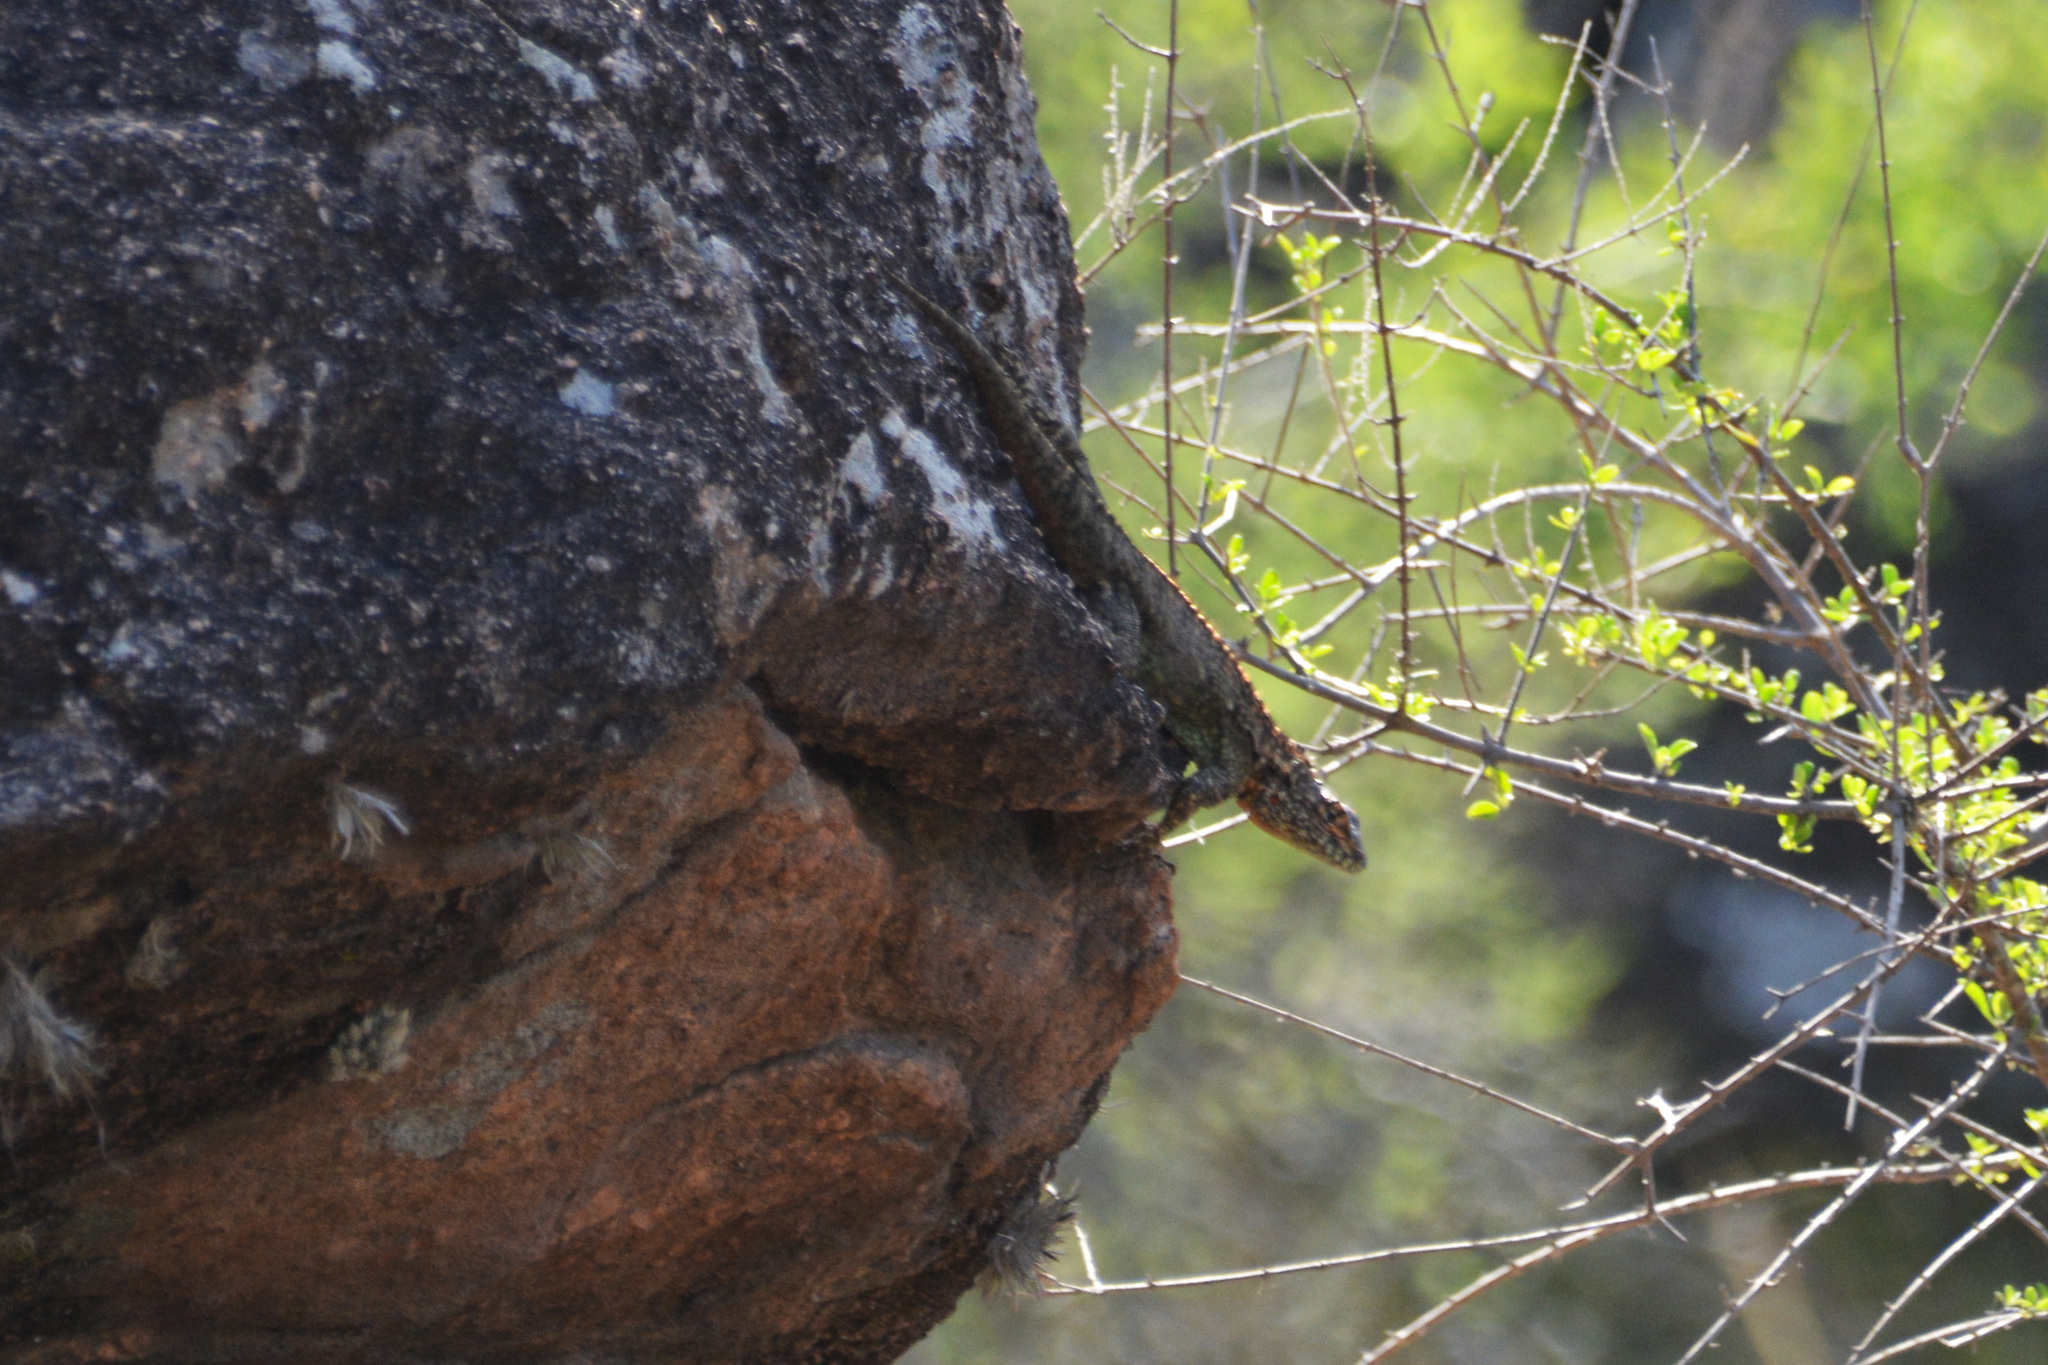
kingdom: Animalia
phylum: Chordata
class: Squamata
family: Tropiduridae
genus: Tropidurus
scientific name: Tropidurus spinulosus
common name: Spiny lava lizard
